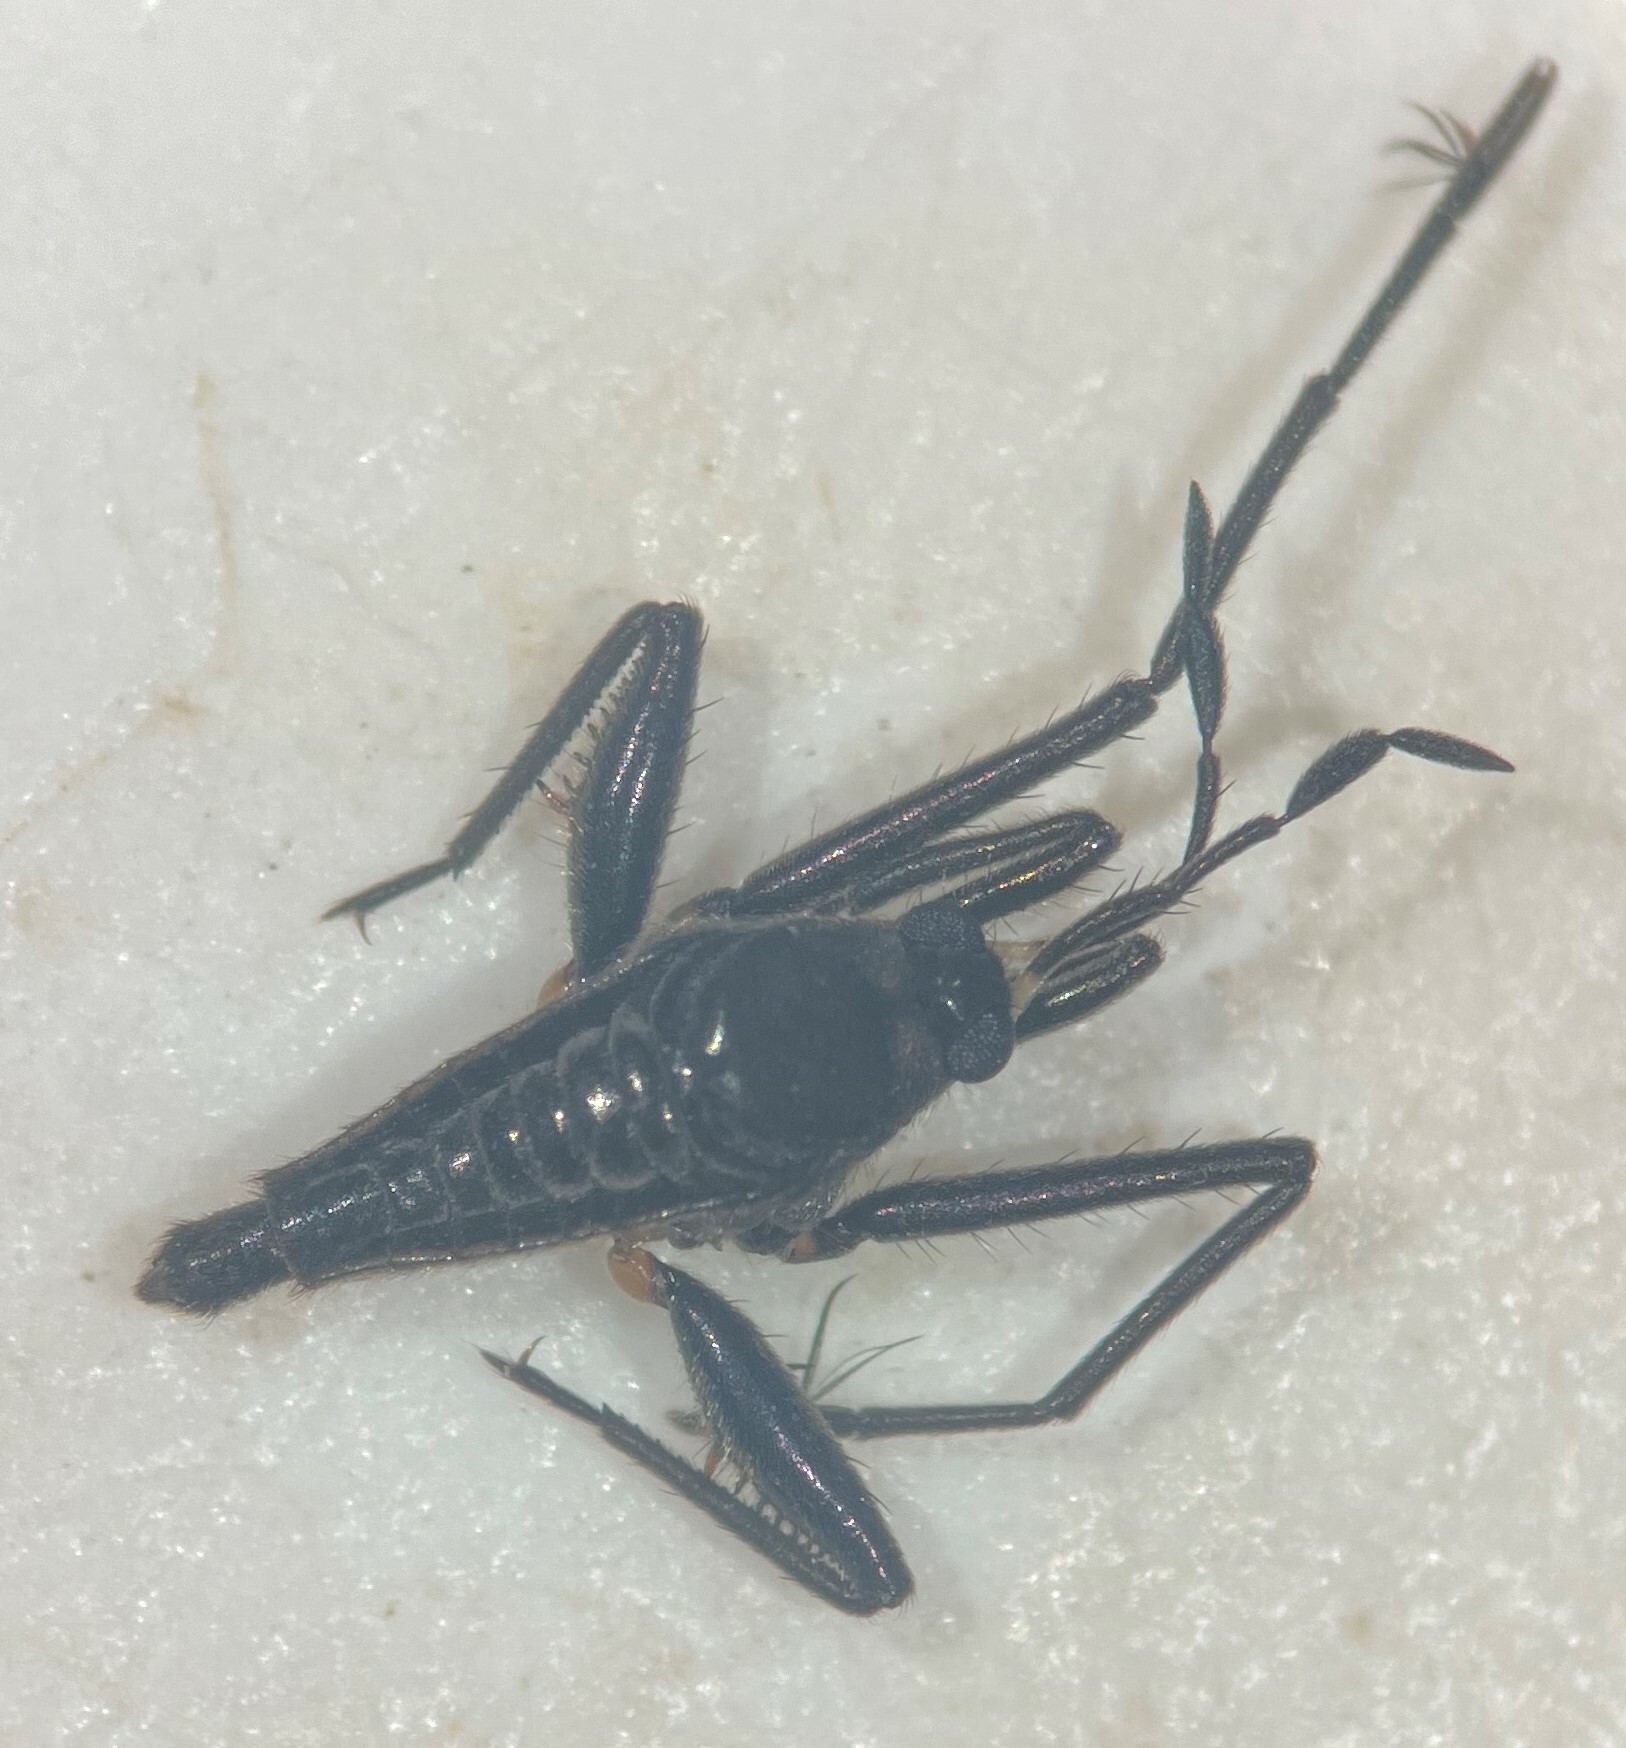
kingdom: Animalia
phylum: Arthropoda
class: Insecta
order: Hemiptera
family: Veliidae
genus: Rhagovelia
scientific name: Rhagovelia obesa
